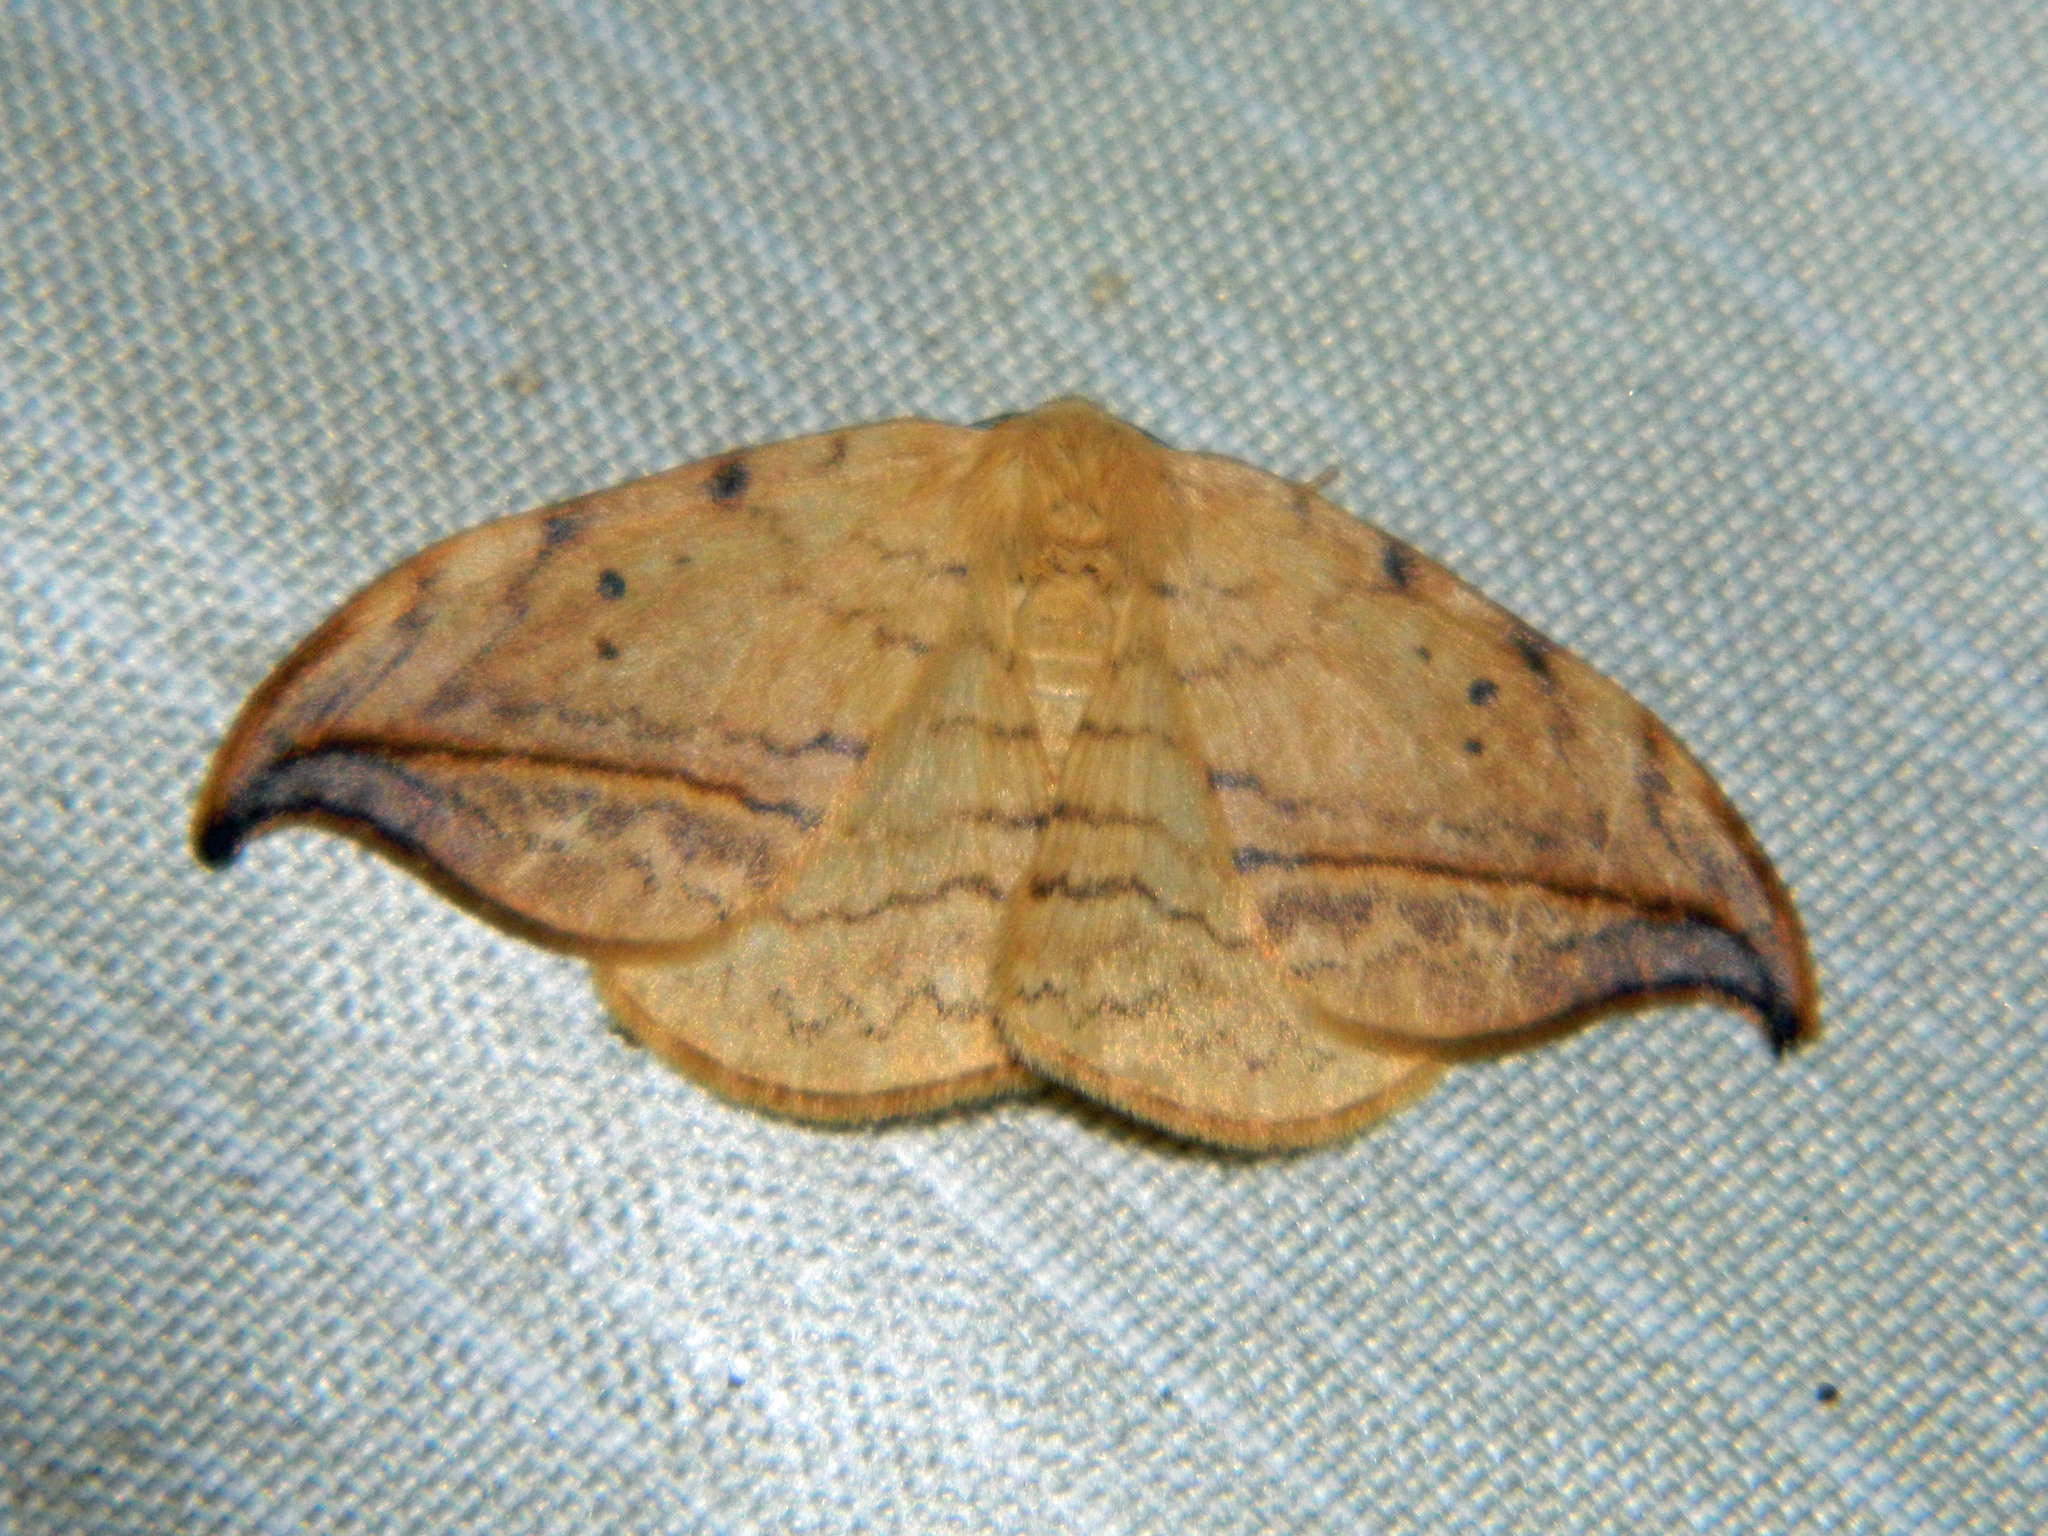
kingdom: Animalia
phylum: Arthropoda
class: Insecta
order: Lepidoptera
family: Drepanidae
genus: Drepana
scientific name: Drepana arcuata
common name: Arched hooktip moth
